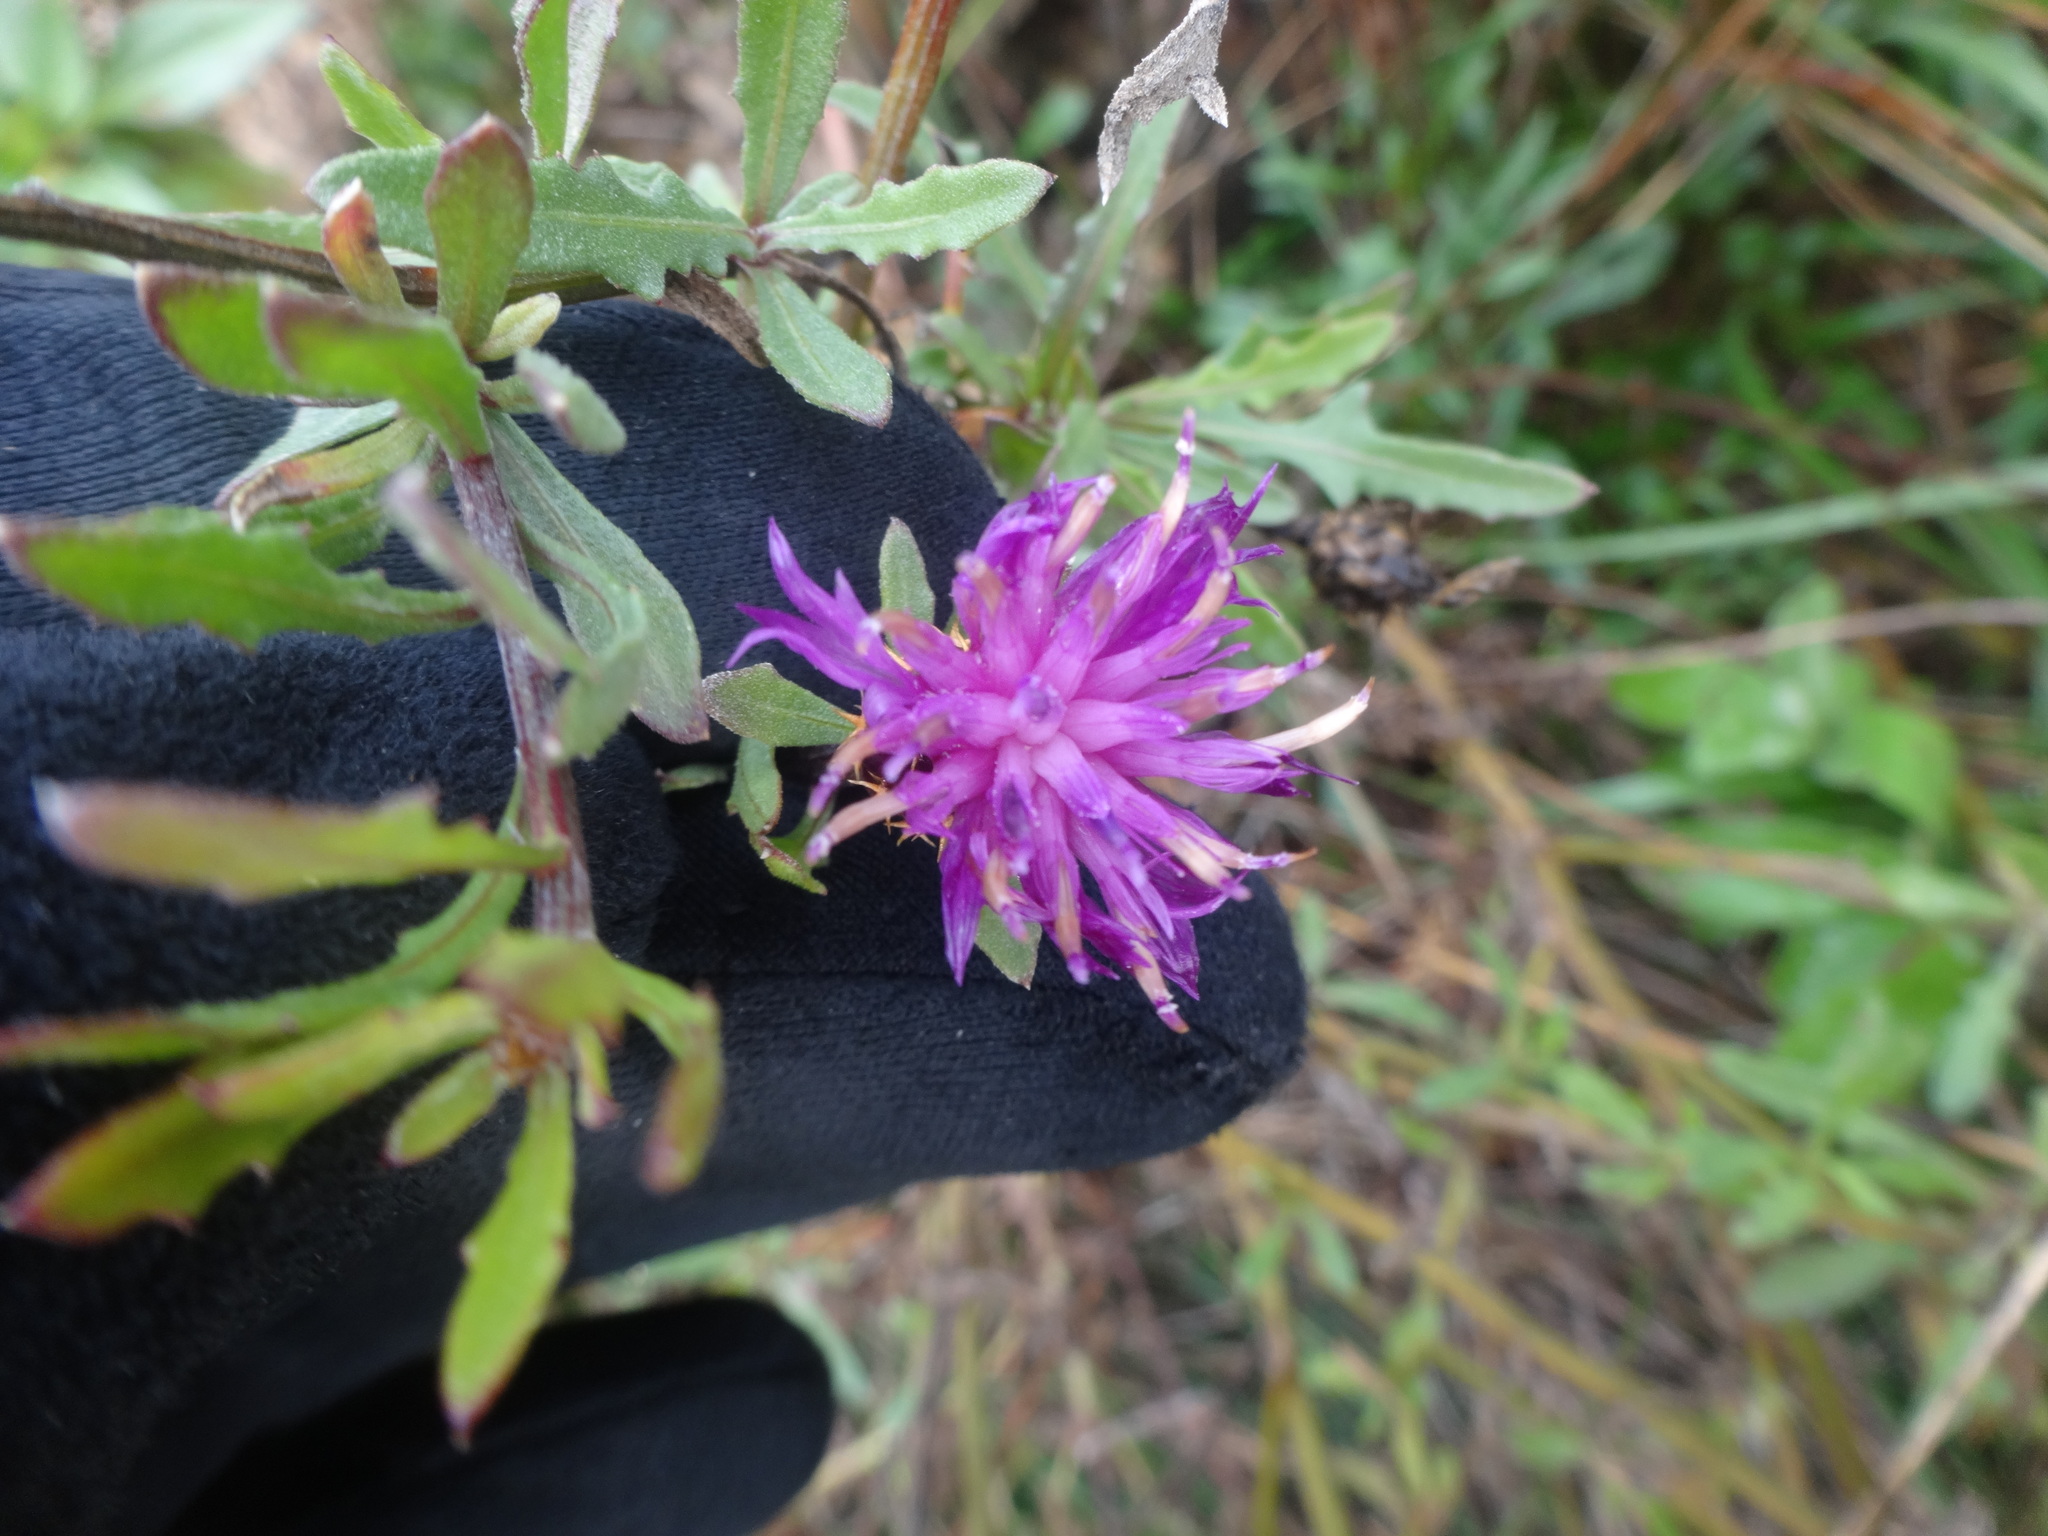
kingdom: Plantae
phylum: Tracheophyta
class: Magnoliopsida
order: Asterales
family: Asteraceae
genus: Centaurea
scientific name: Centaurea aspera
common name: Rough star-thistle
